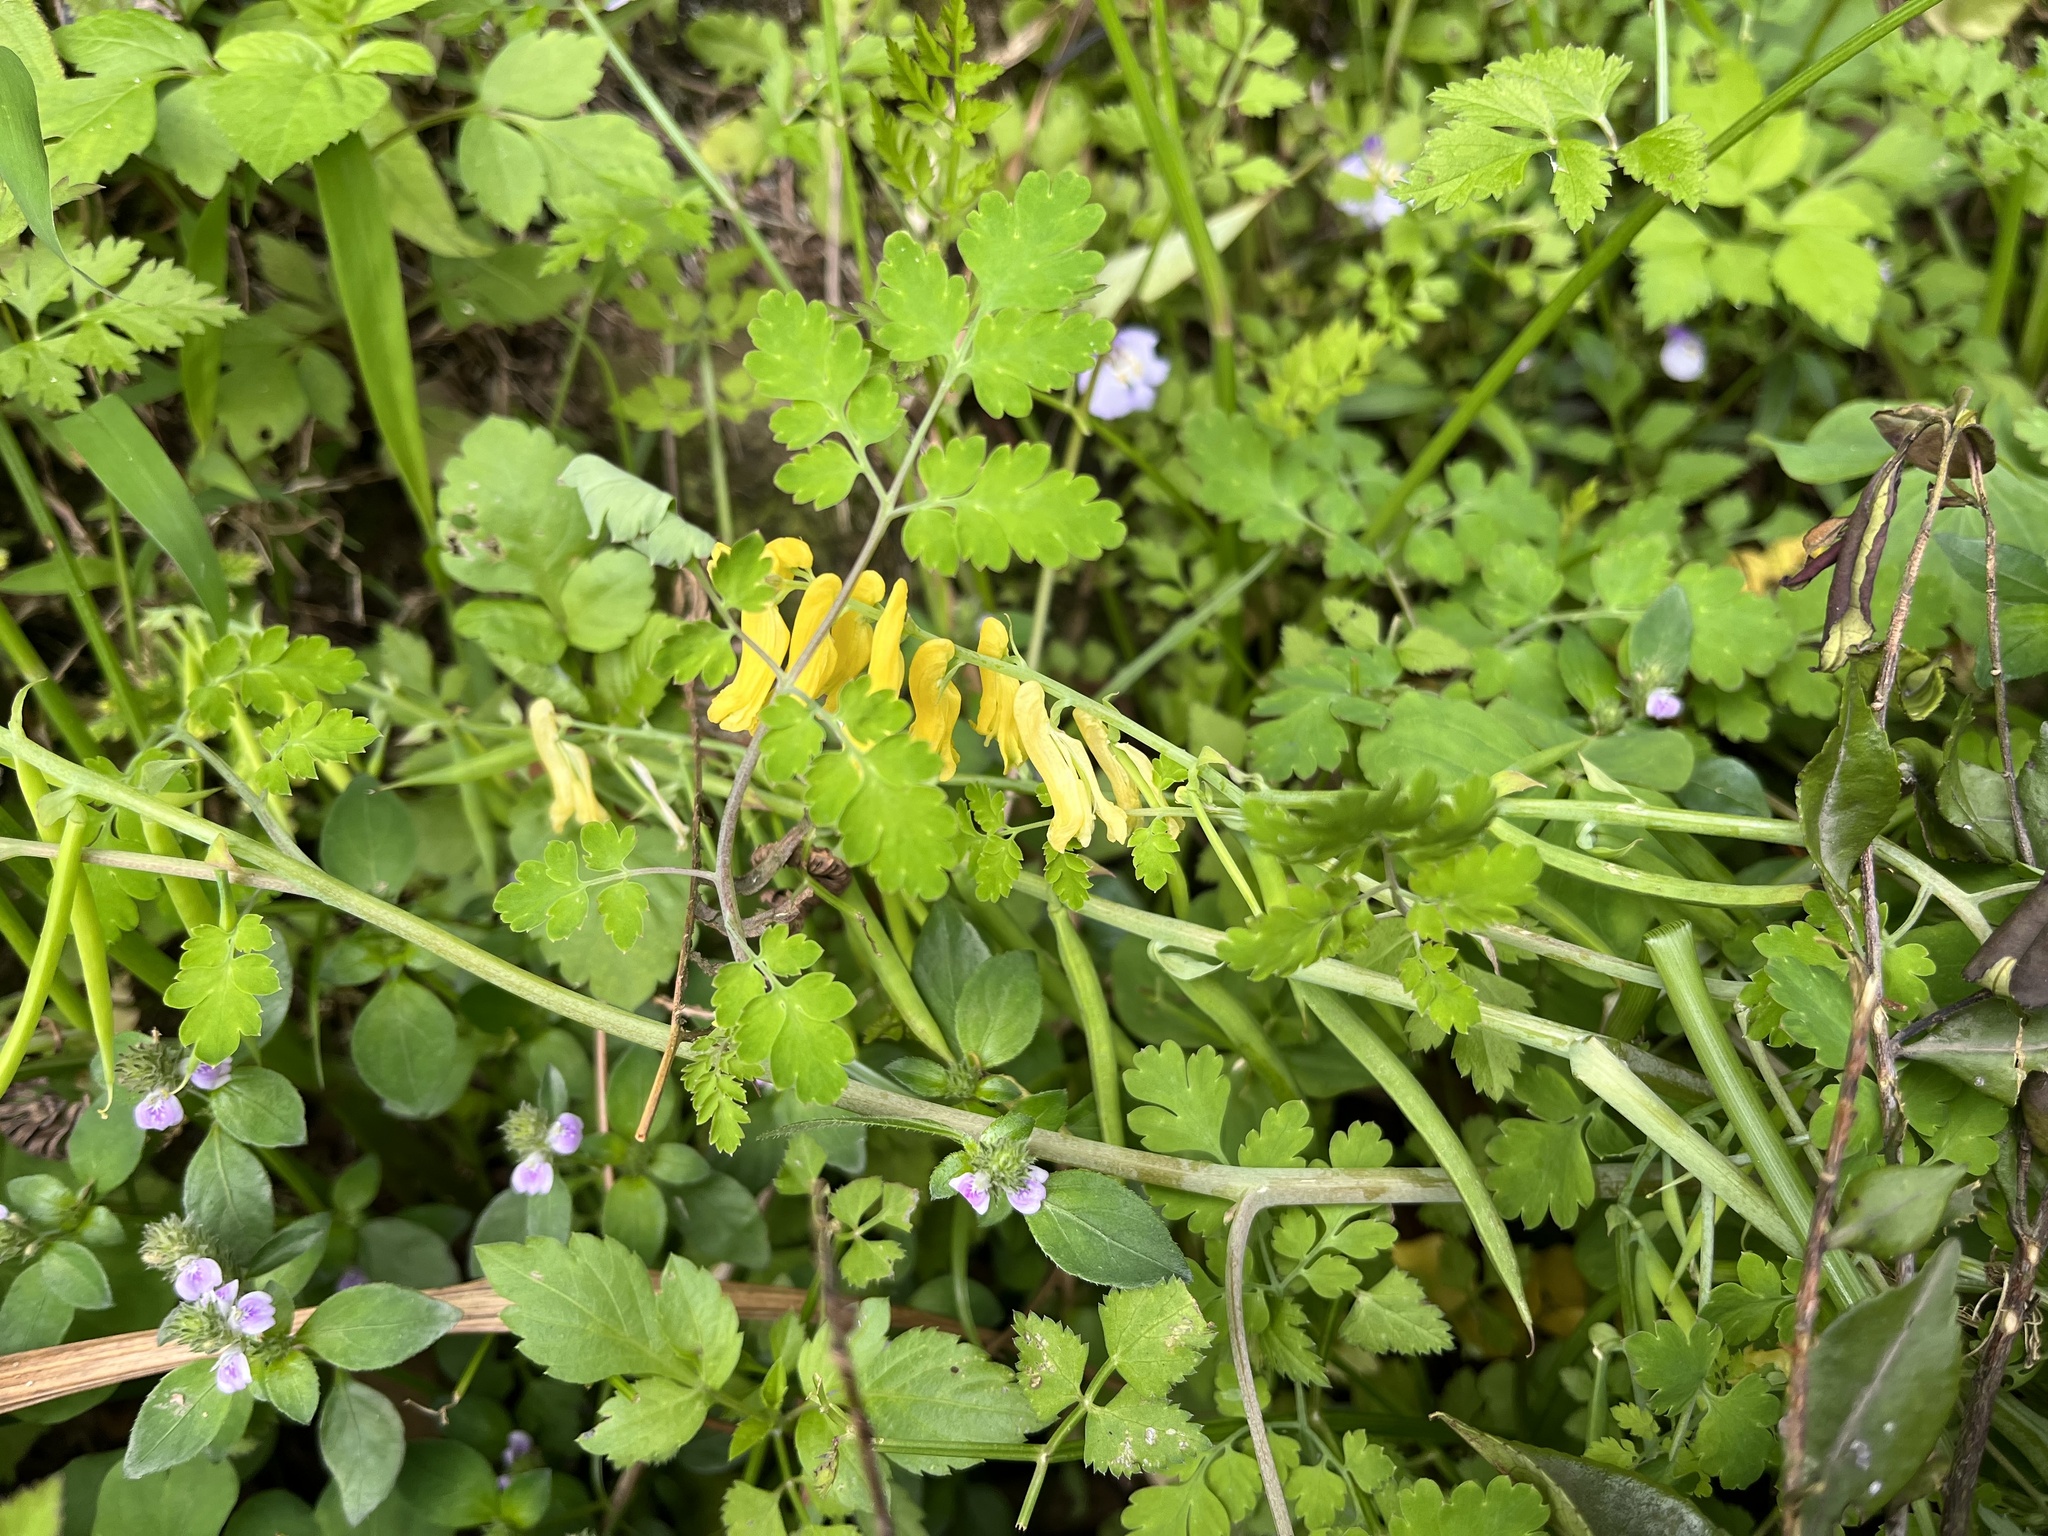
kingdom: Plantae
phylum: Tracheophyta
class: Magnoliopsida
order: Ranunculales
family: Papaveraceae
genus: Corydalis
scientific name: Corydalis balansae
